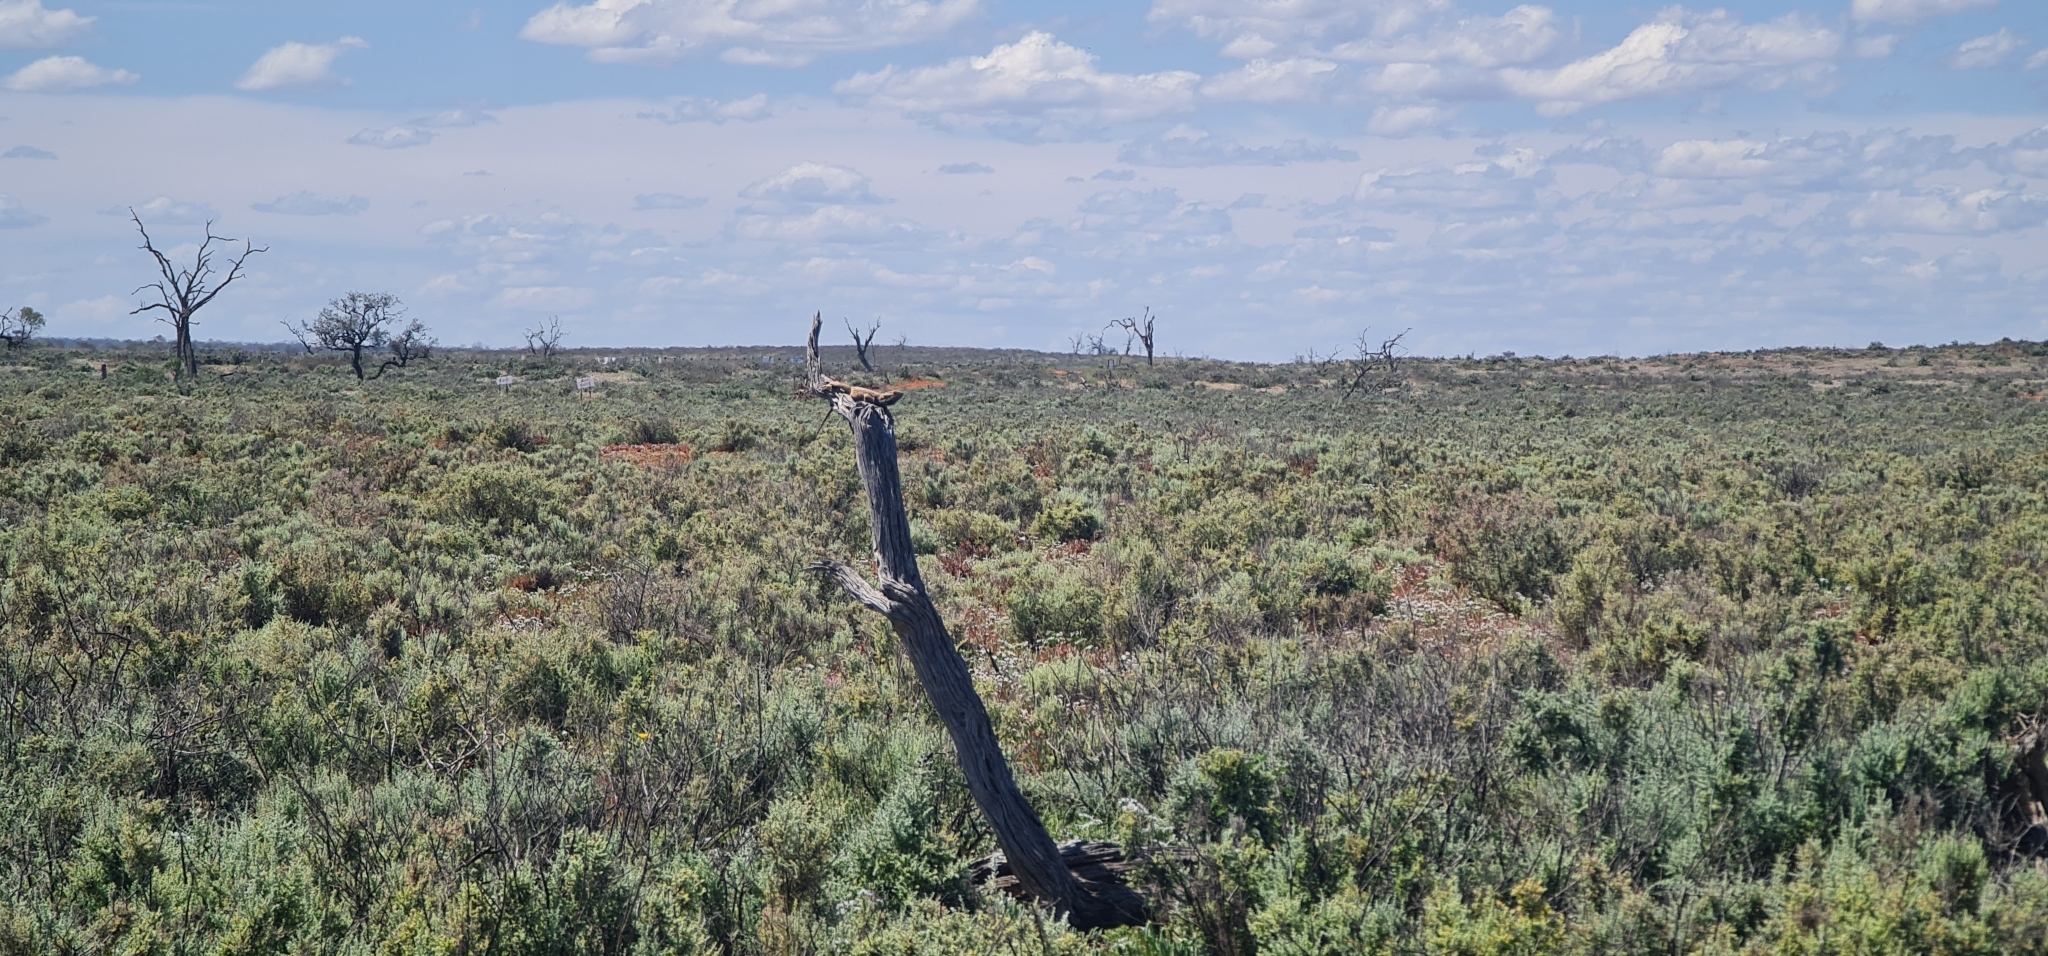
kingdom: Animalia
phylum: Chordata
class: Squamata
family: Agamidae
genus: Pogona
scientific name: Pogona vitticeps
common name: Central bearded dragon
